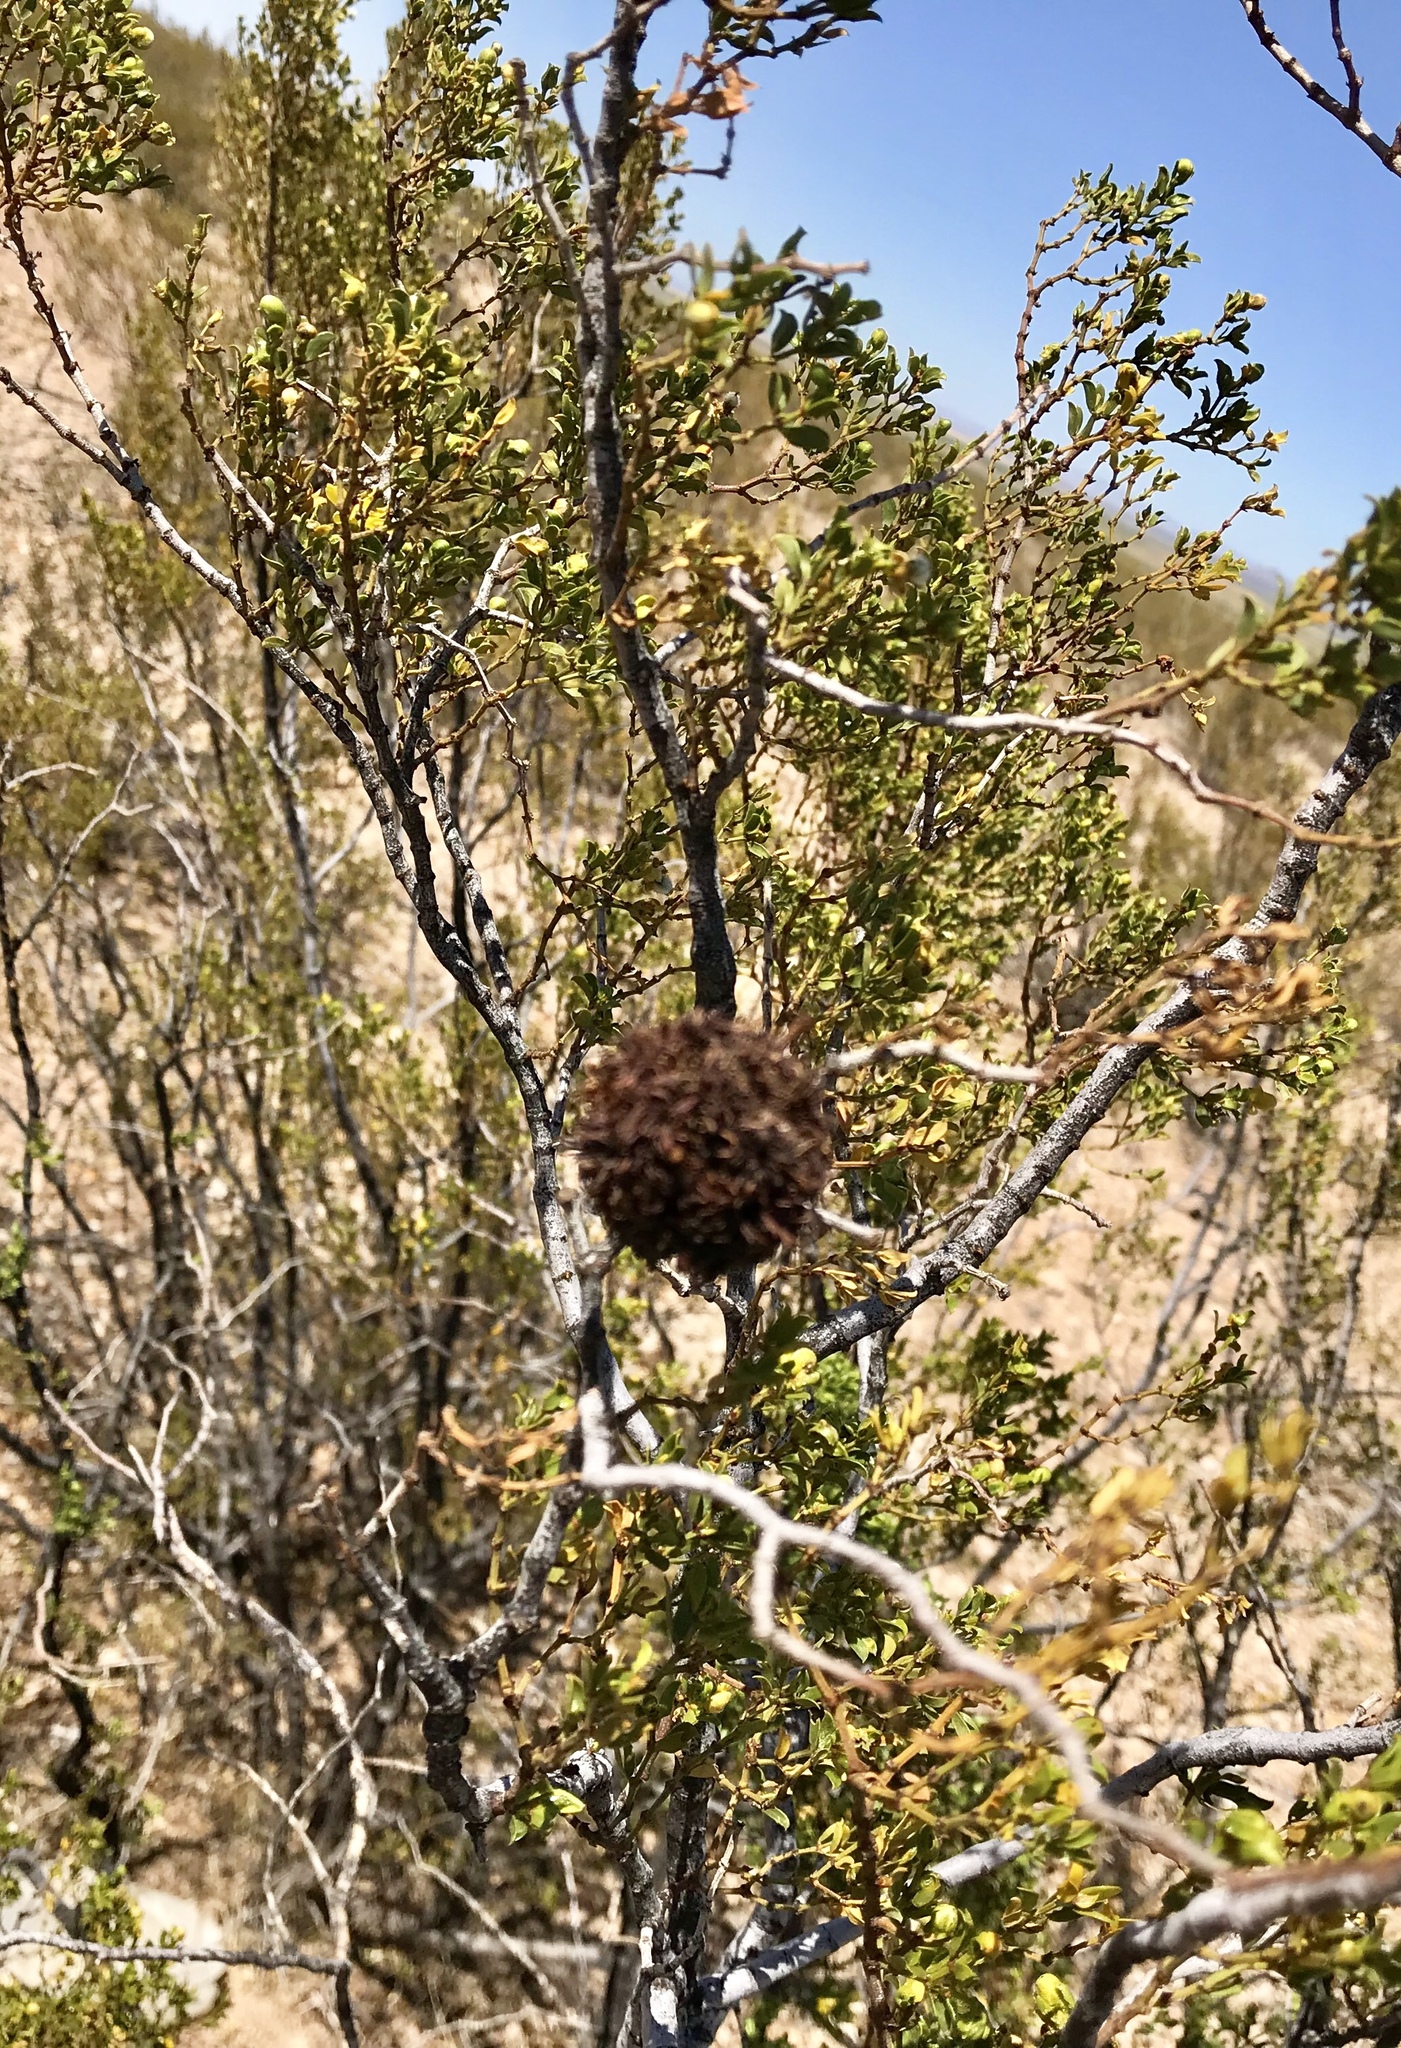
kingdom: Animalia
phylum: Arthropoda
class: Insecta
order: Diptera
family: Cecidomyiidae
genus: Asphondylia
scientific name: Asphondylia auripila
